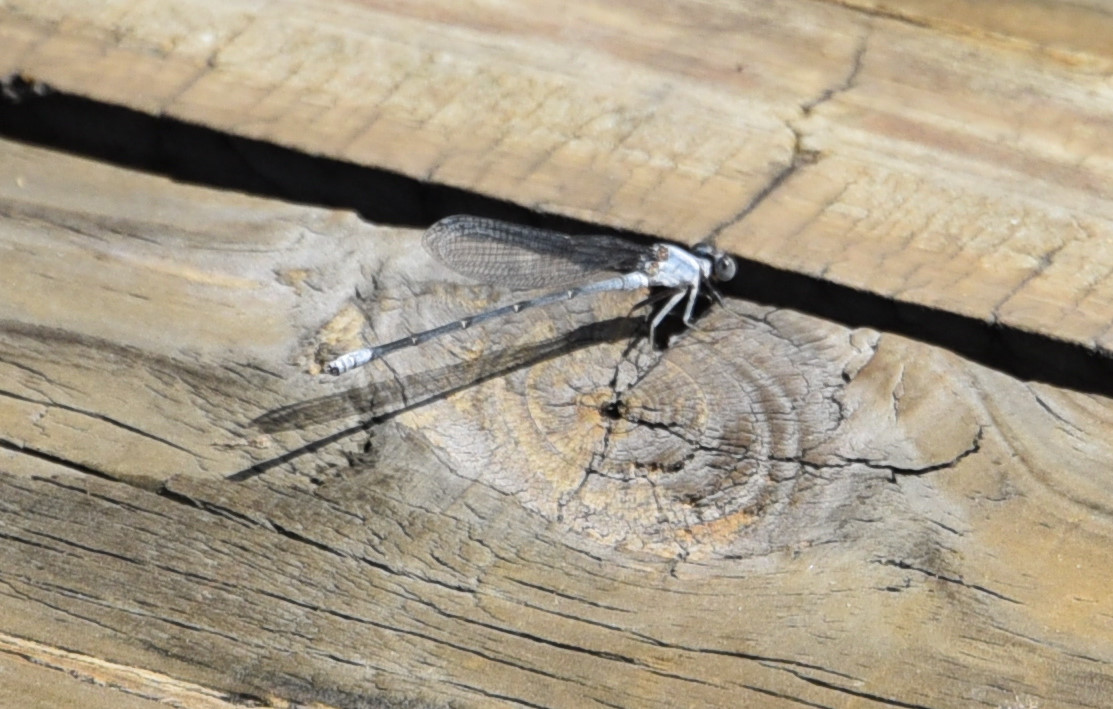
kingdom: Animalia
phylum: Arthropoda
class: Insecta
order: Odonata
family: Coenagrionidae
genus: Argia
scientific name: Argia moesta
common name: Powdered dancer
